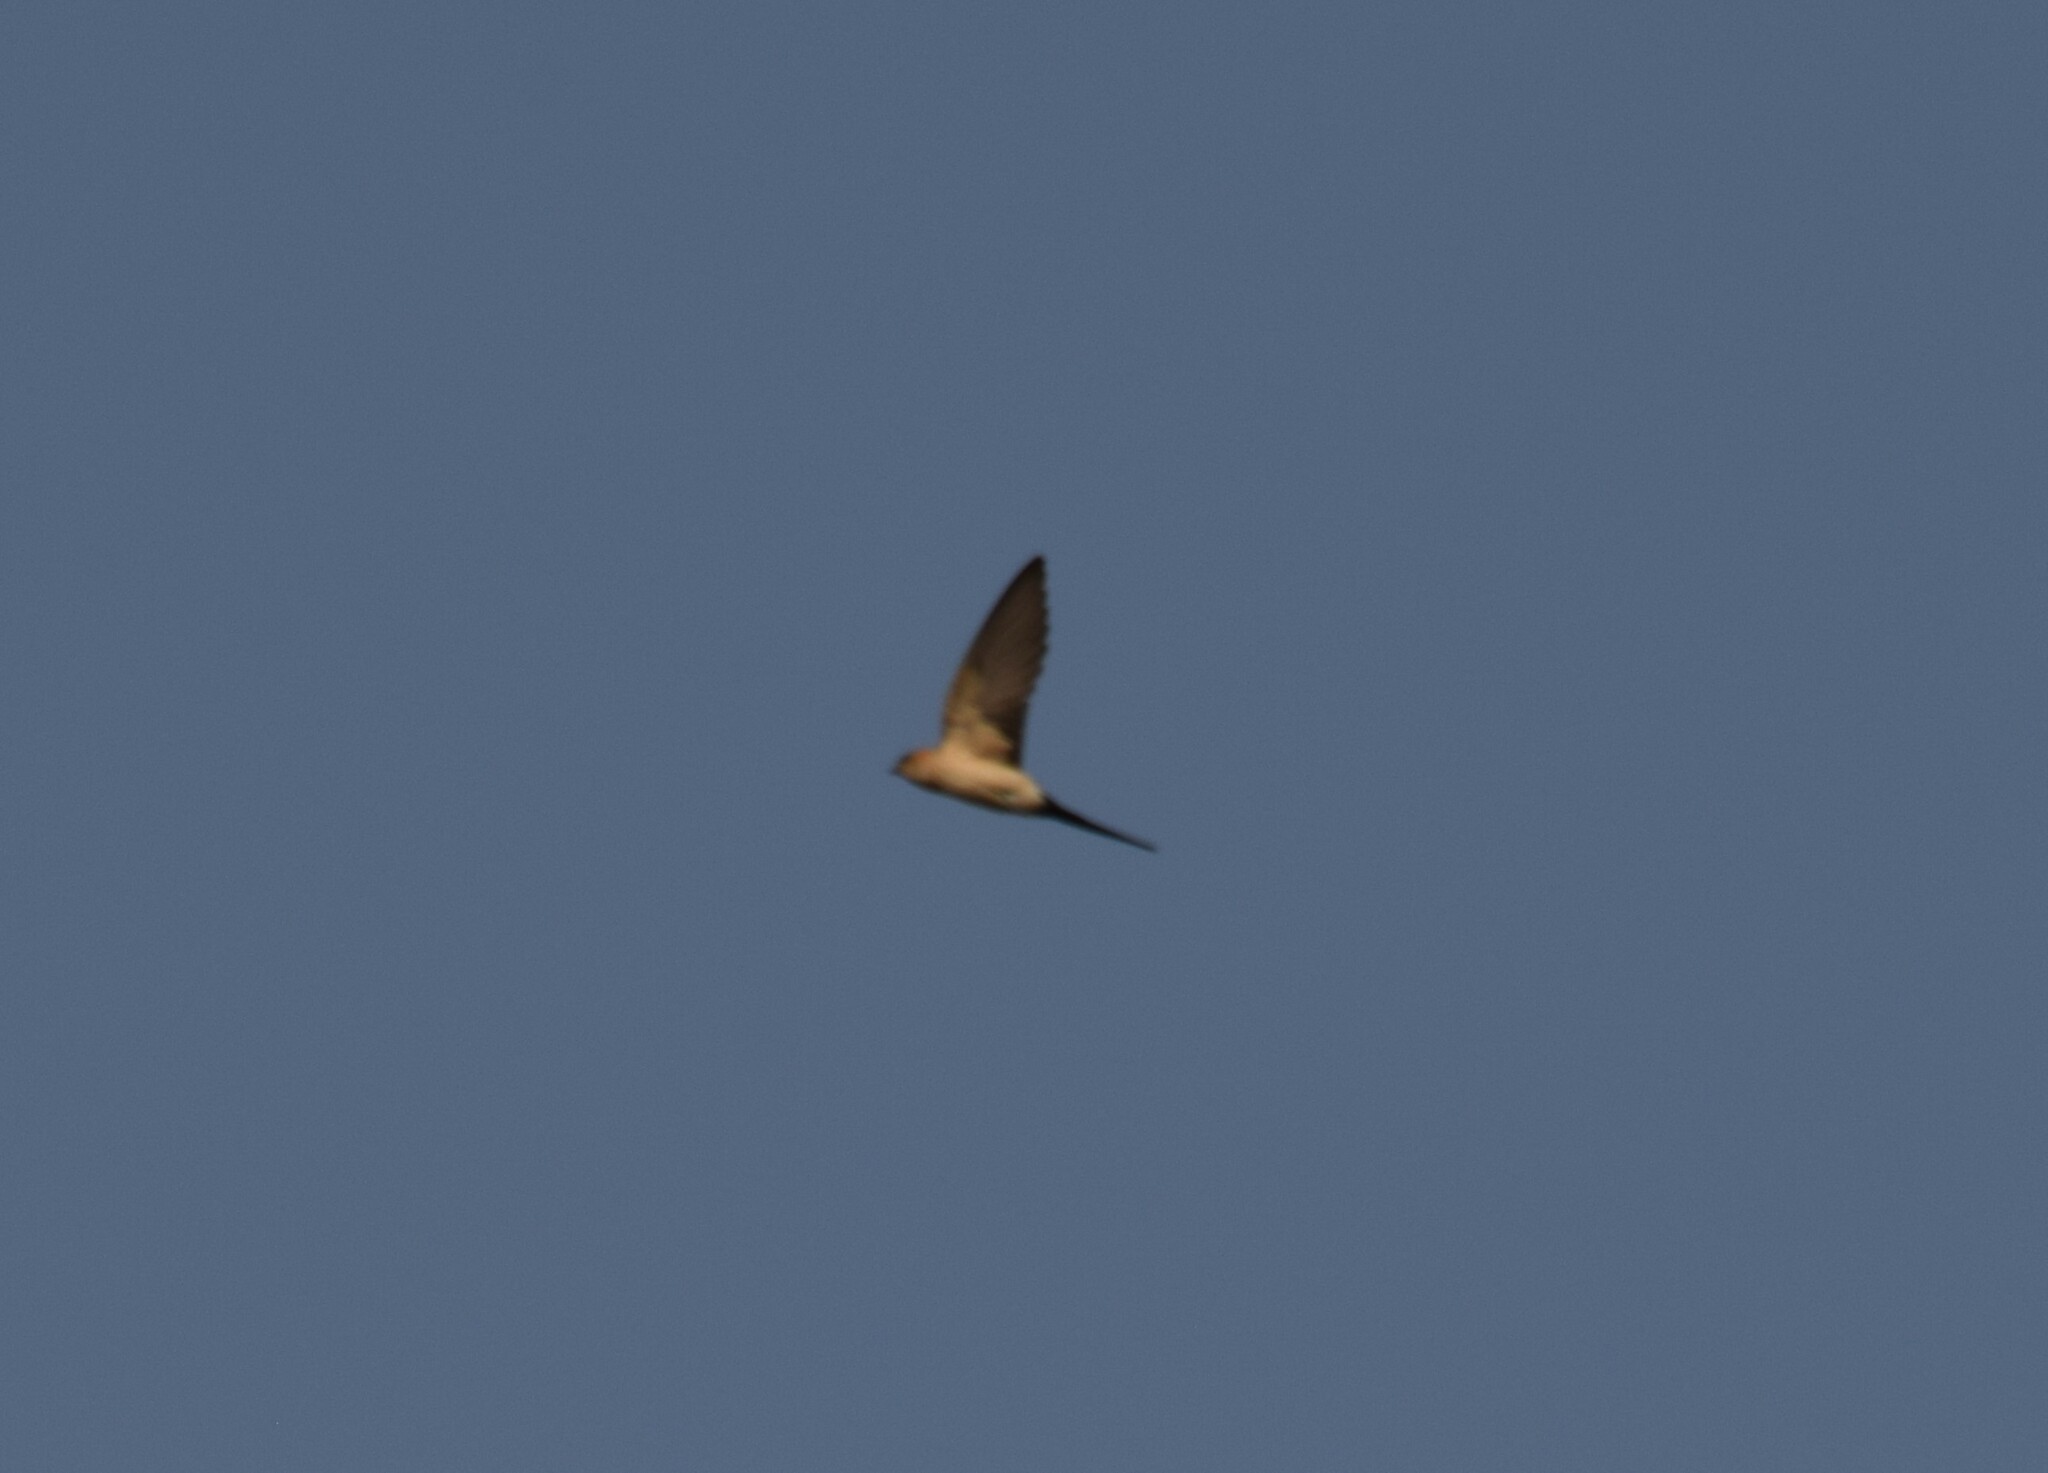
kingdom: Animalia
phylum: Chordata
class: Aves
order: Passeriformes
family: Hirundinidae
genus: Cecropis
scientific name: Cecropis daurica
